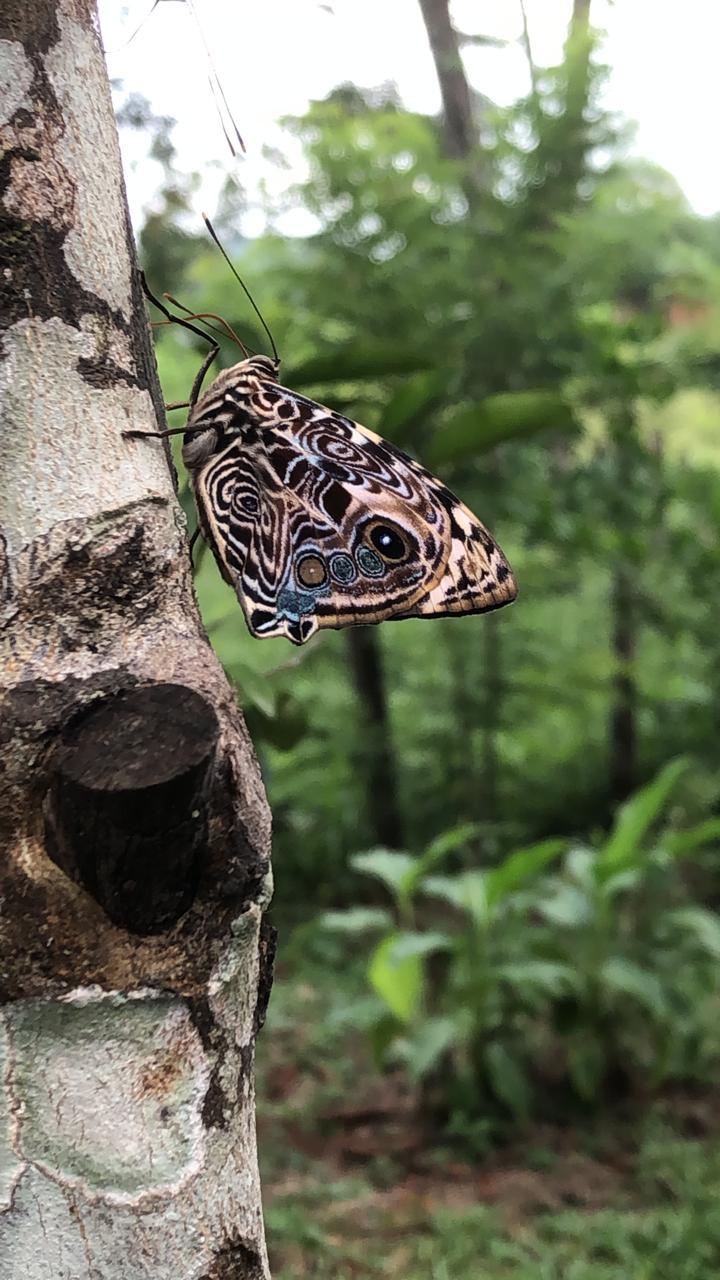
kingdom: Animalia
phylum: Arthropoda
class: Insecta
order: Lepidoptera
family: Nymphalidae
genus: Smyrna
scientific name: Smyrna blomfildia
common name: Blomfild's beauty
